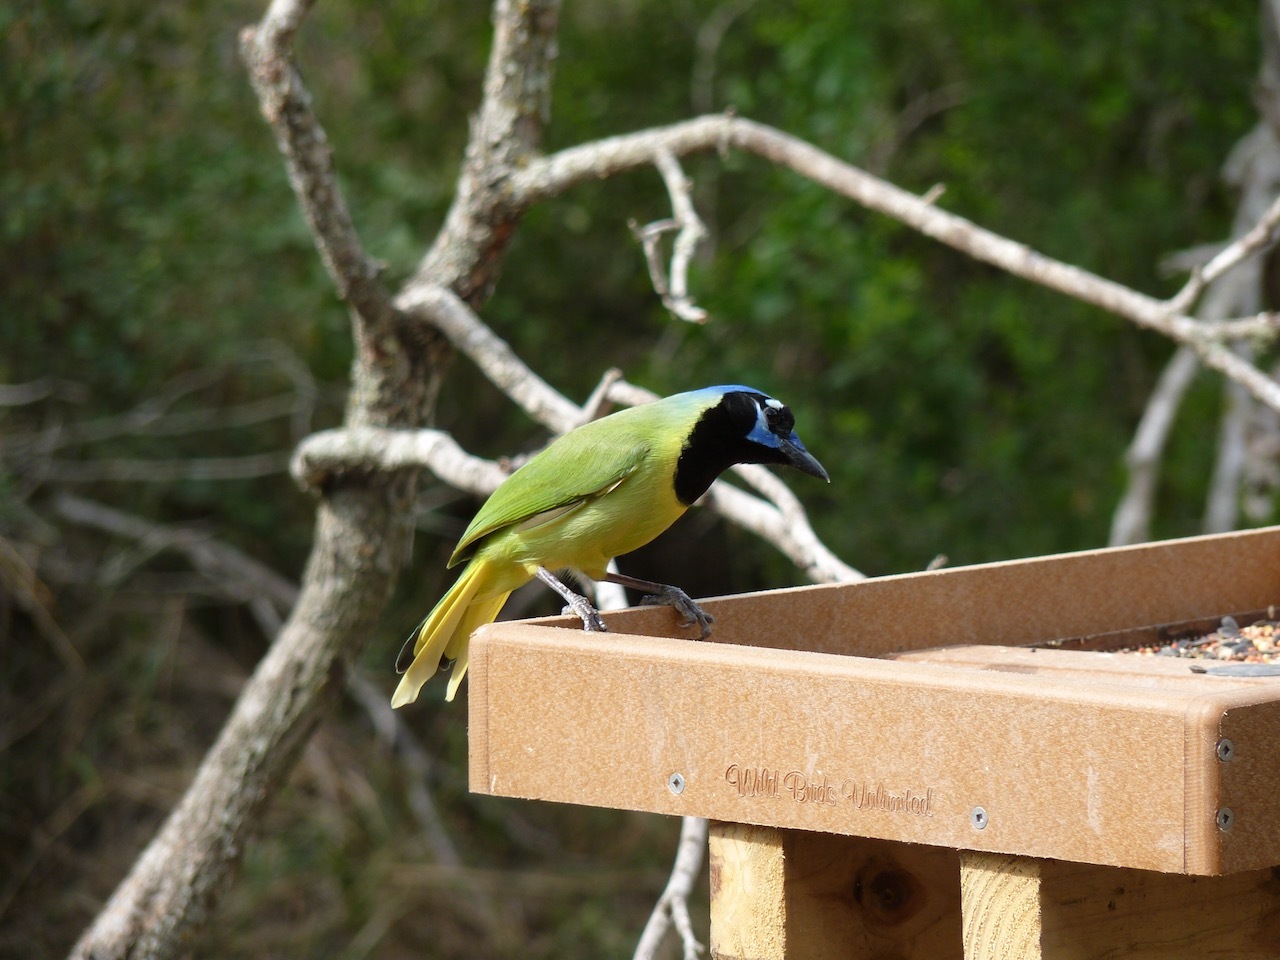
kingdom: Animalia
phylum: Chordata
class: Aves
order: Passeriformes
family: Corvidae
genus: Cyanocorax
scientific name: Cyanocorax yncas
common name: Green jay
